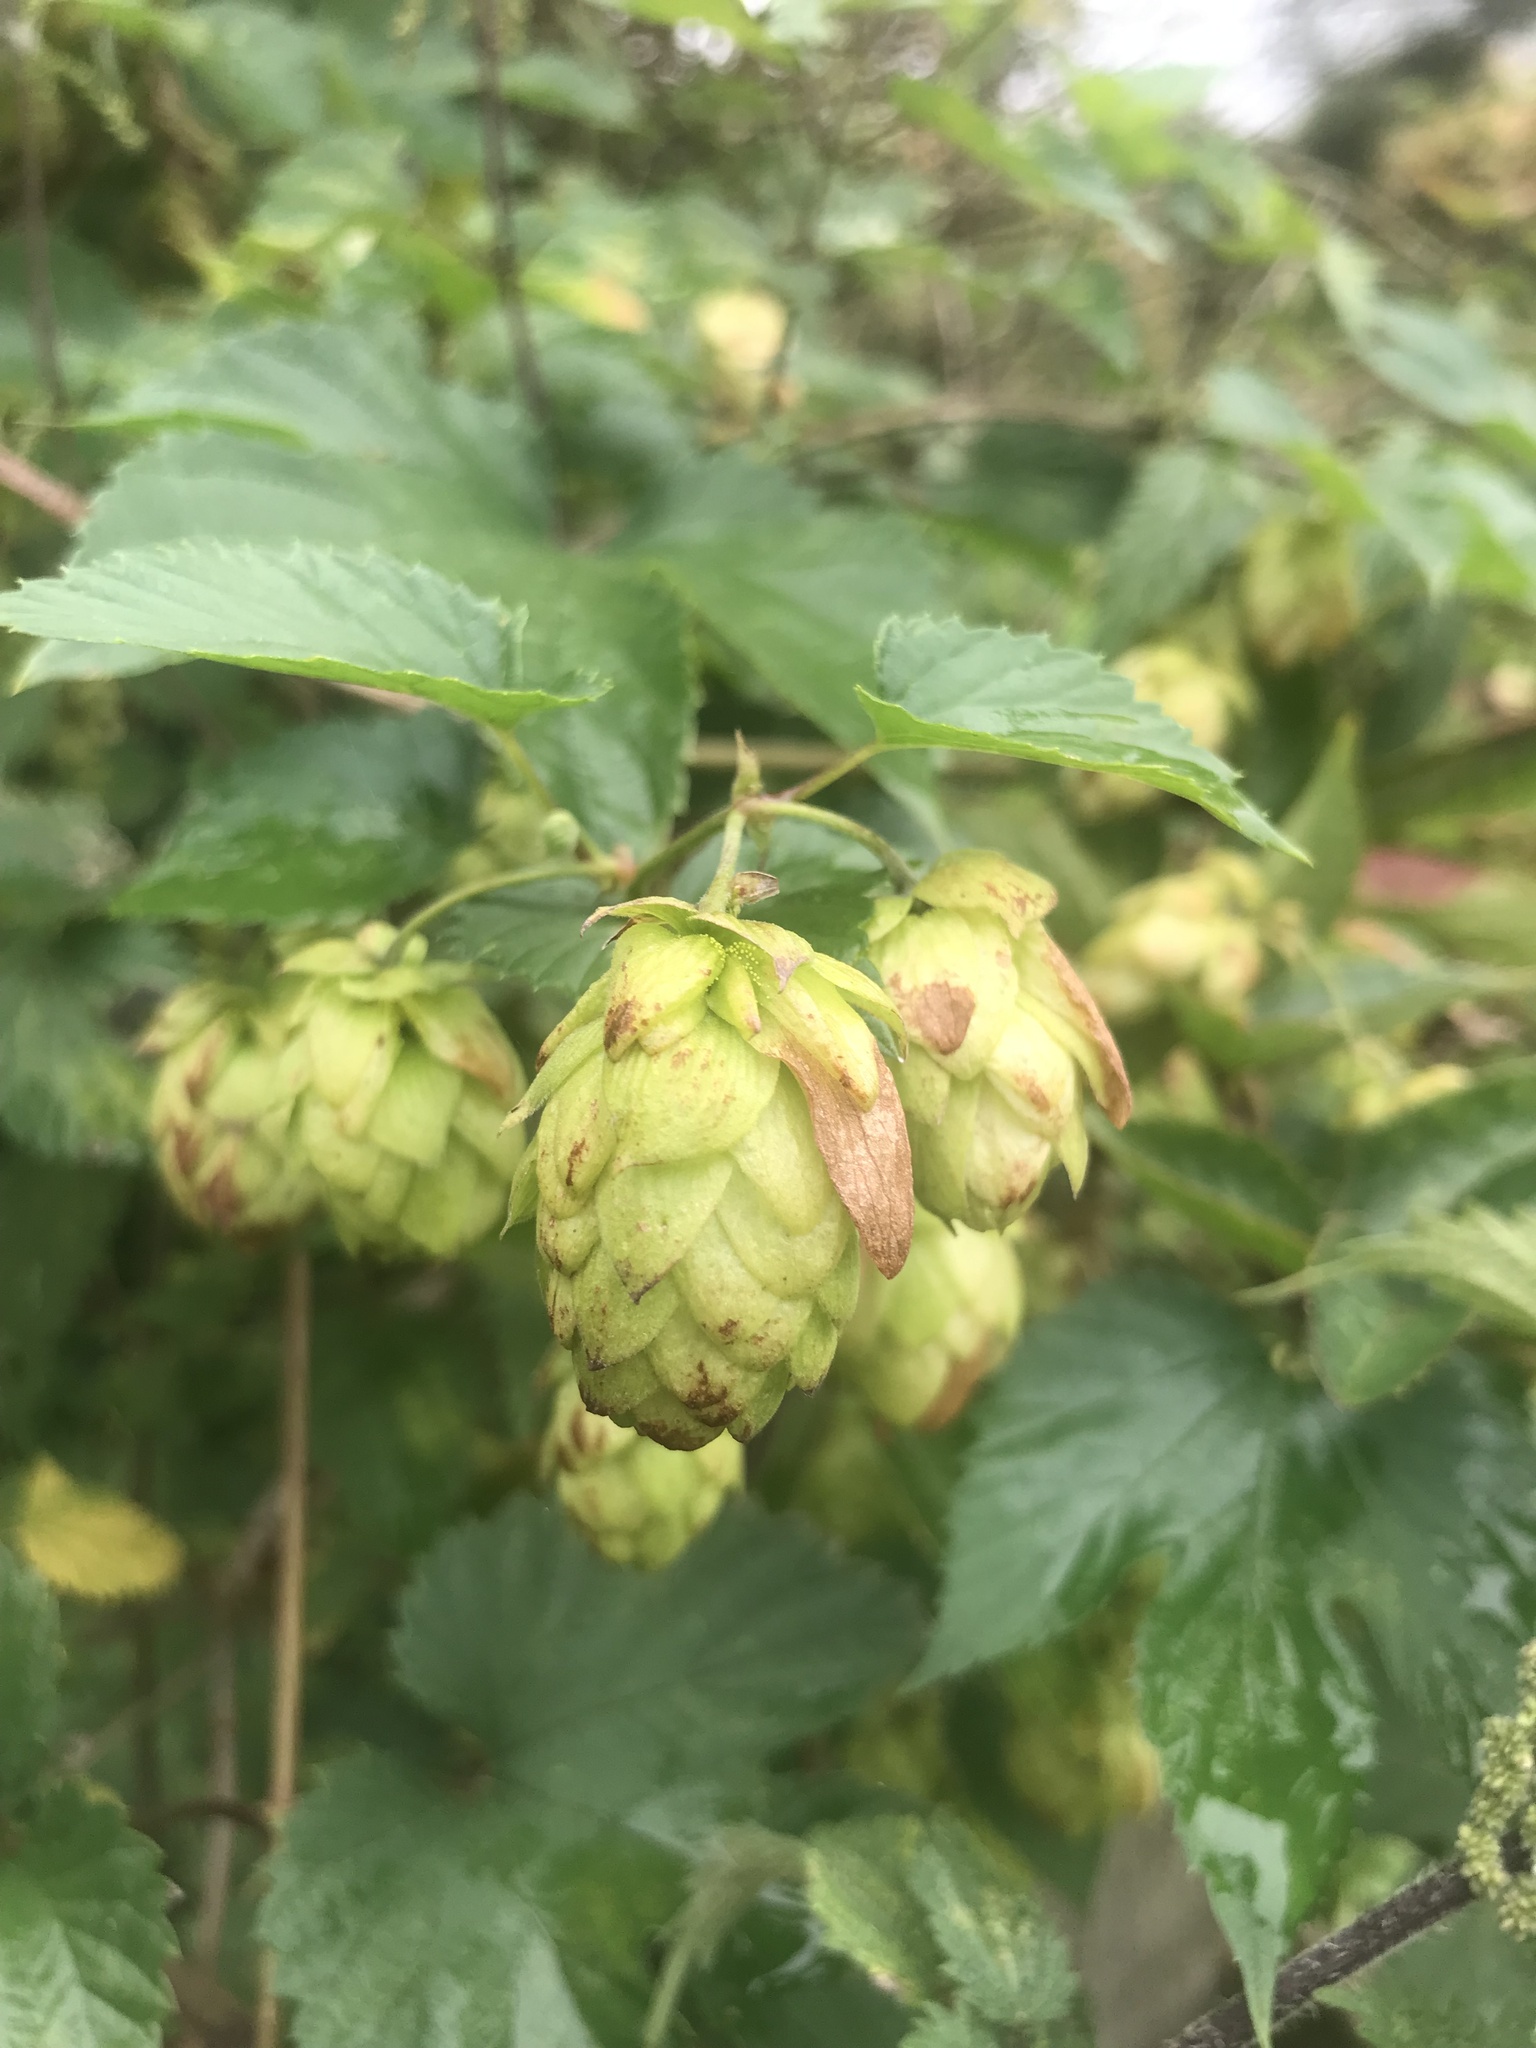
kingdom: Plantae
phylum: Tracheophyta
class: Magnoliopsida
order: Rosales
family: Cannabaceae
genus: Humulus
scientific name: Humulus lupulus
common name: Hop
